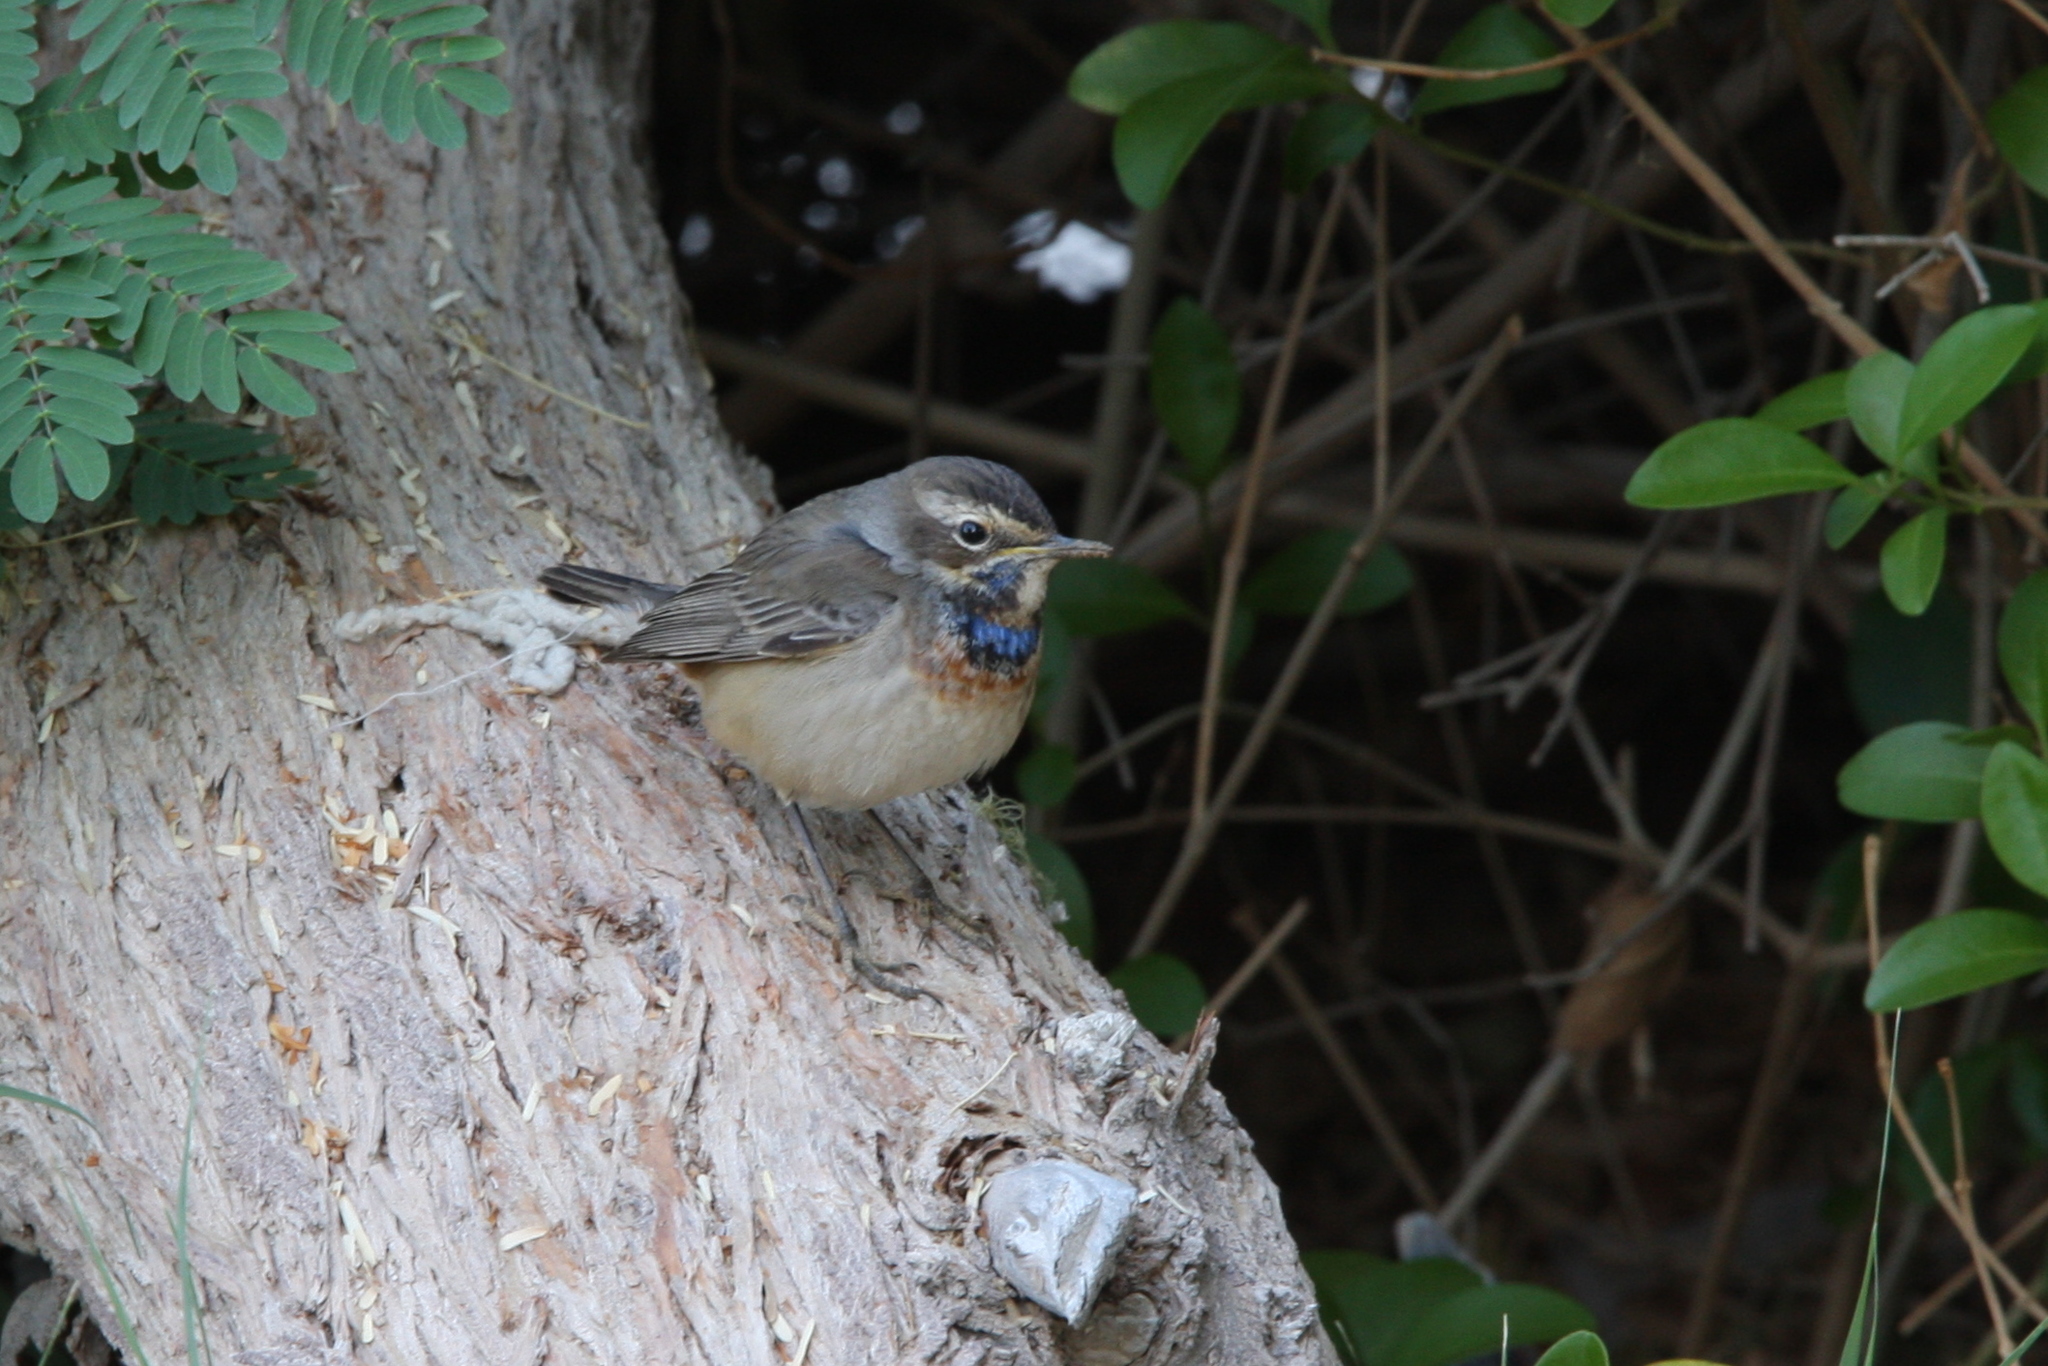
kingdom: Animalia
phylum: Chordata
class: Aves
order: Passeriformes
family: Muscicapidae
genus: Luscinia
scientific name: Luscinia svecica
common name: Bluethroat
